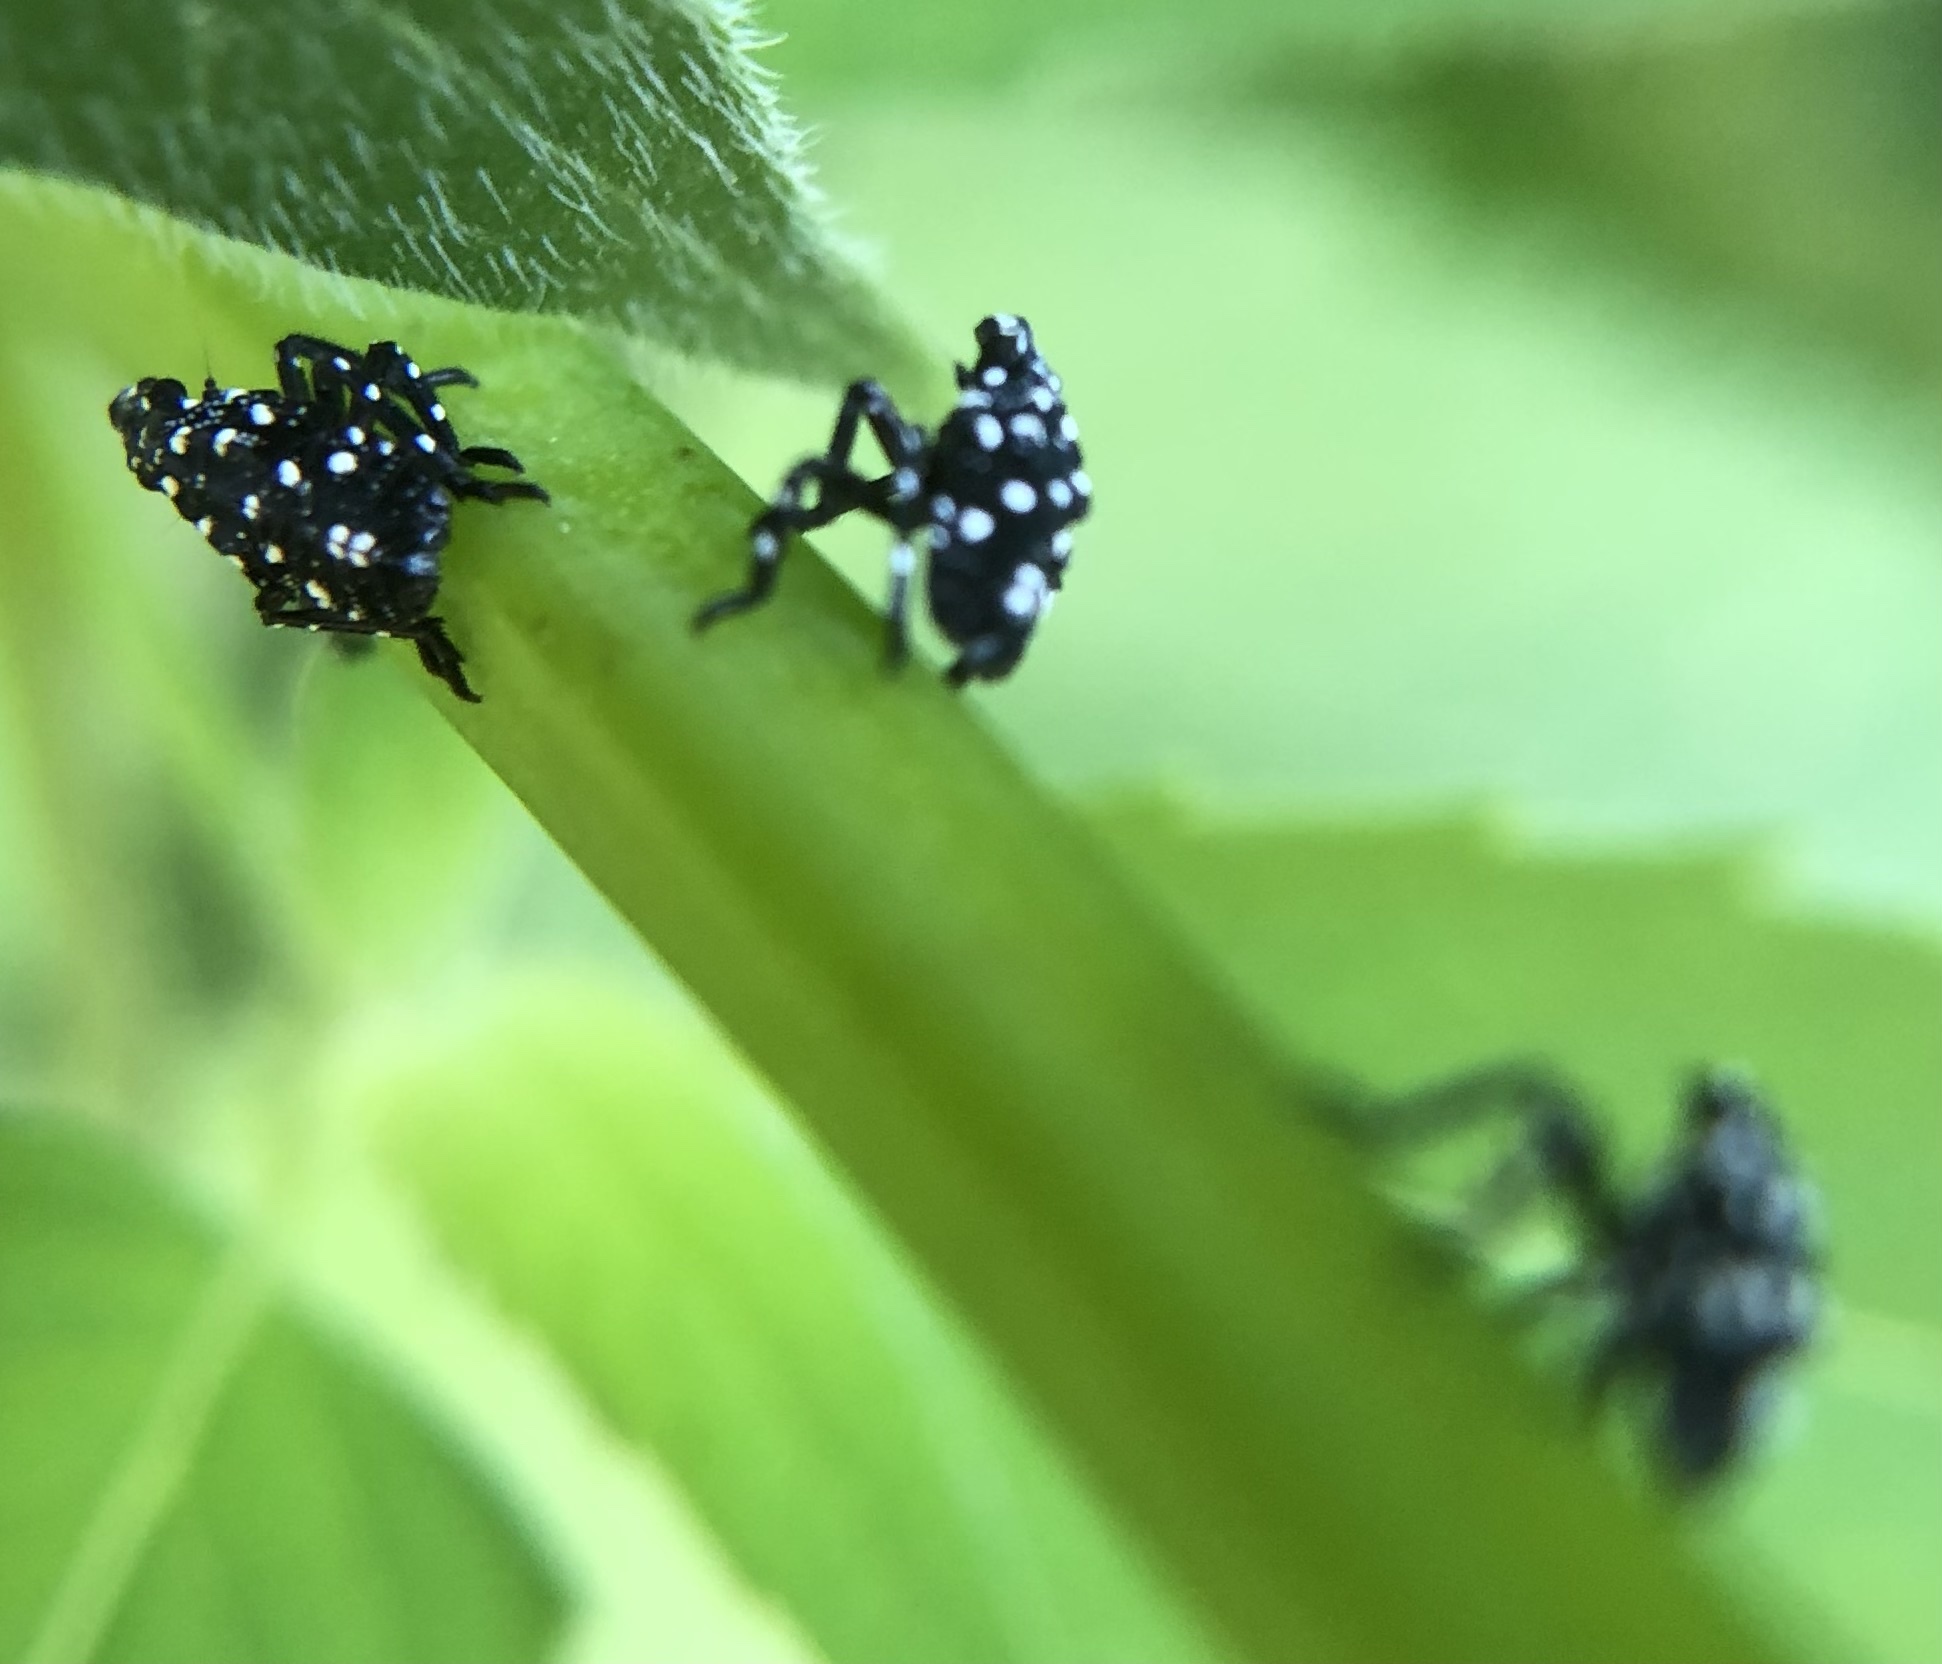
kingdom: Animalia
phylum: Arthropoda
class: Insecta
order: Hemiptera
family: Fulgoridae
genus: Lycorma
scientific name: Lycorma delicatula
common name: Spotted lanternfly
